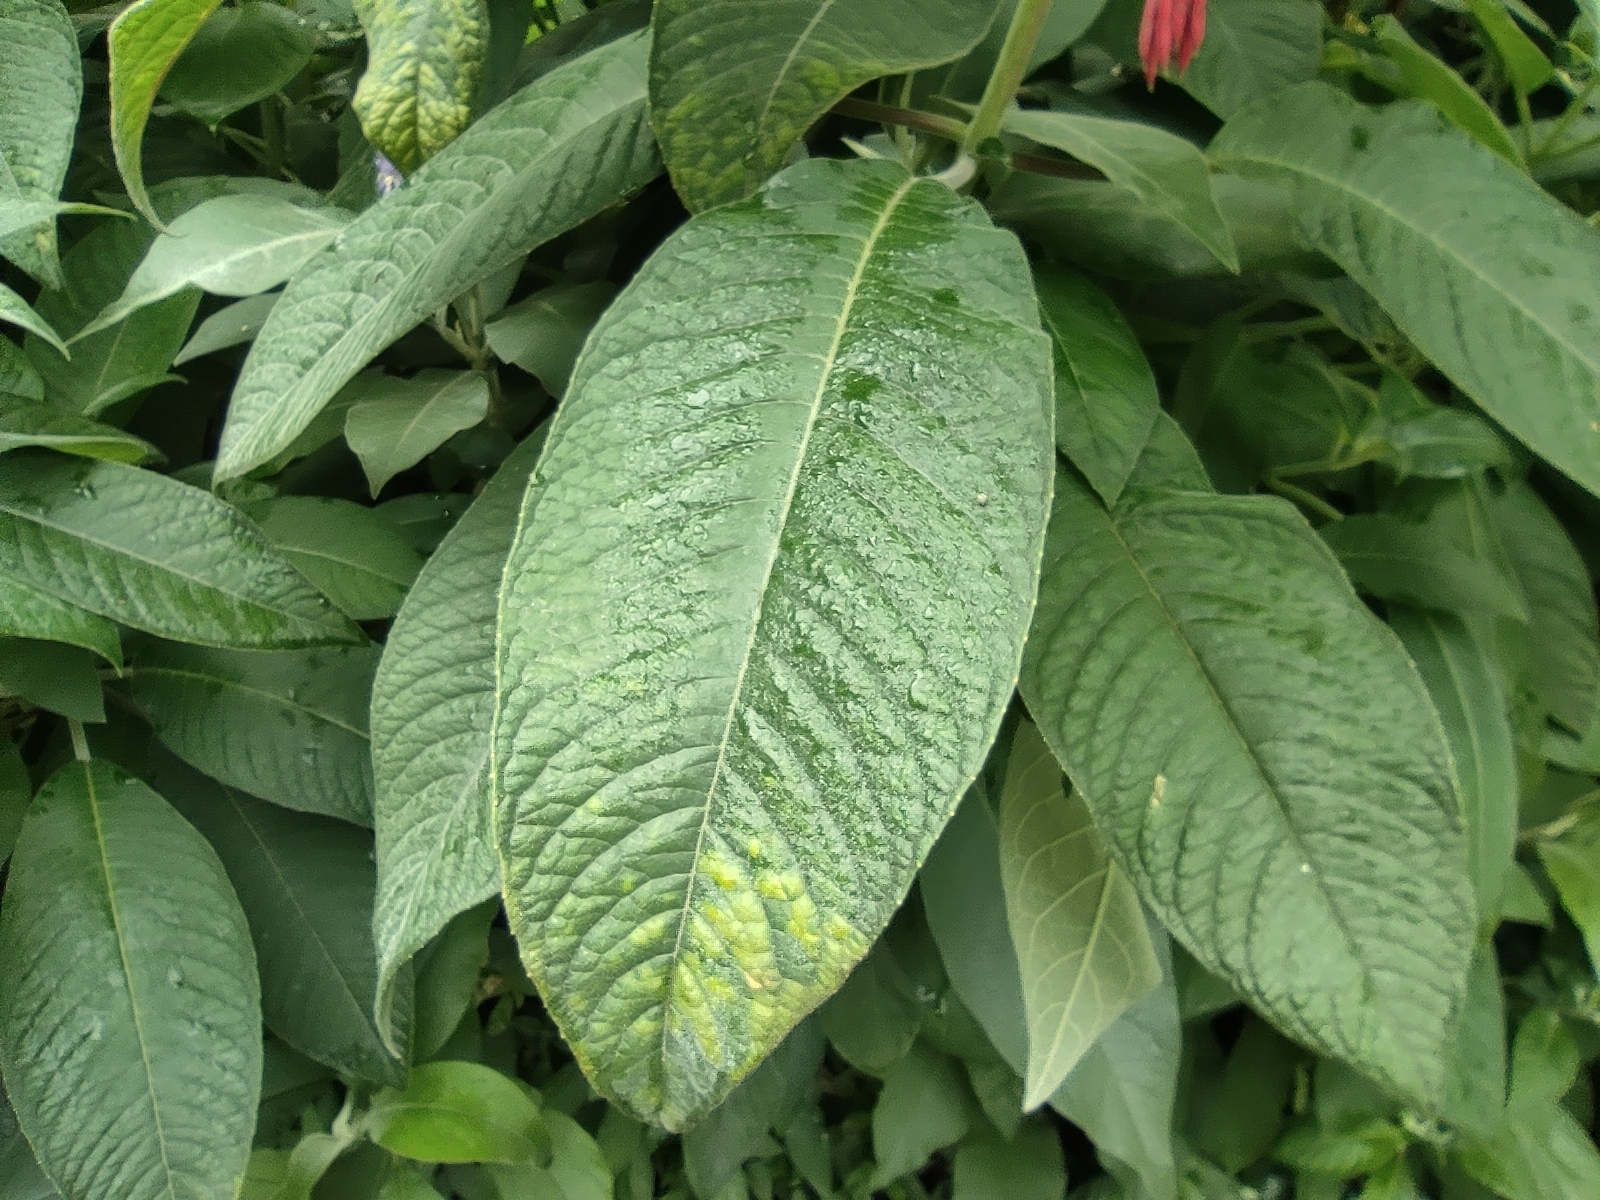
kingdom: Plantae
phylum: Tracheophyta
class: Magnoliopsida
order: Myrtales
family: Onagraceae
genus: Fuchsia
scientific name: Fuchsia boliviana
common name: Bolivian fuchsia
